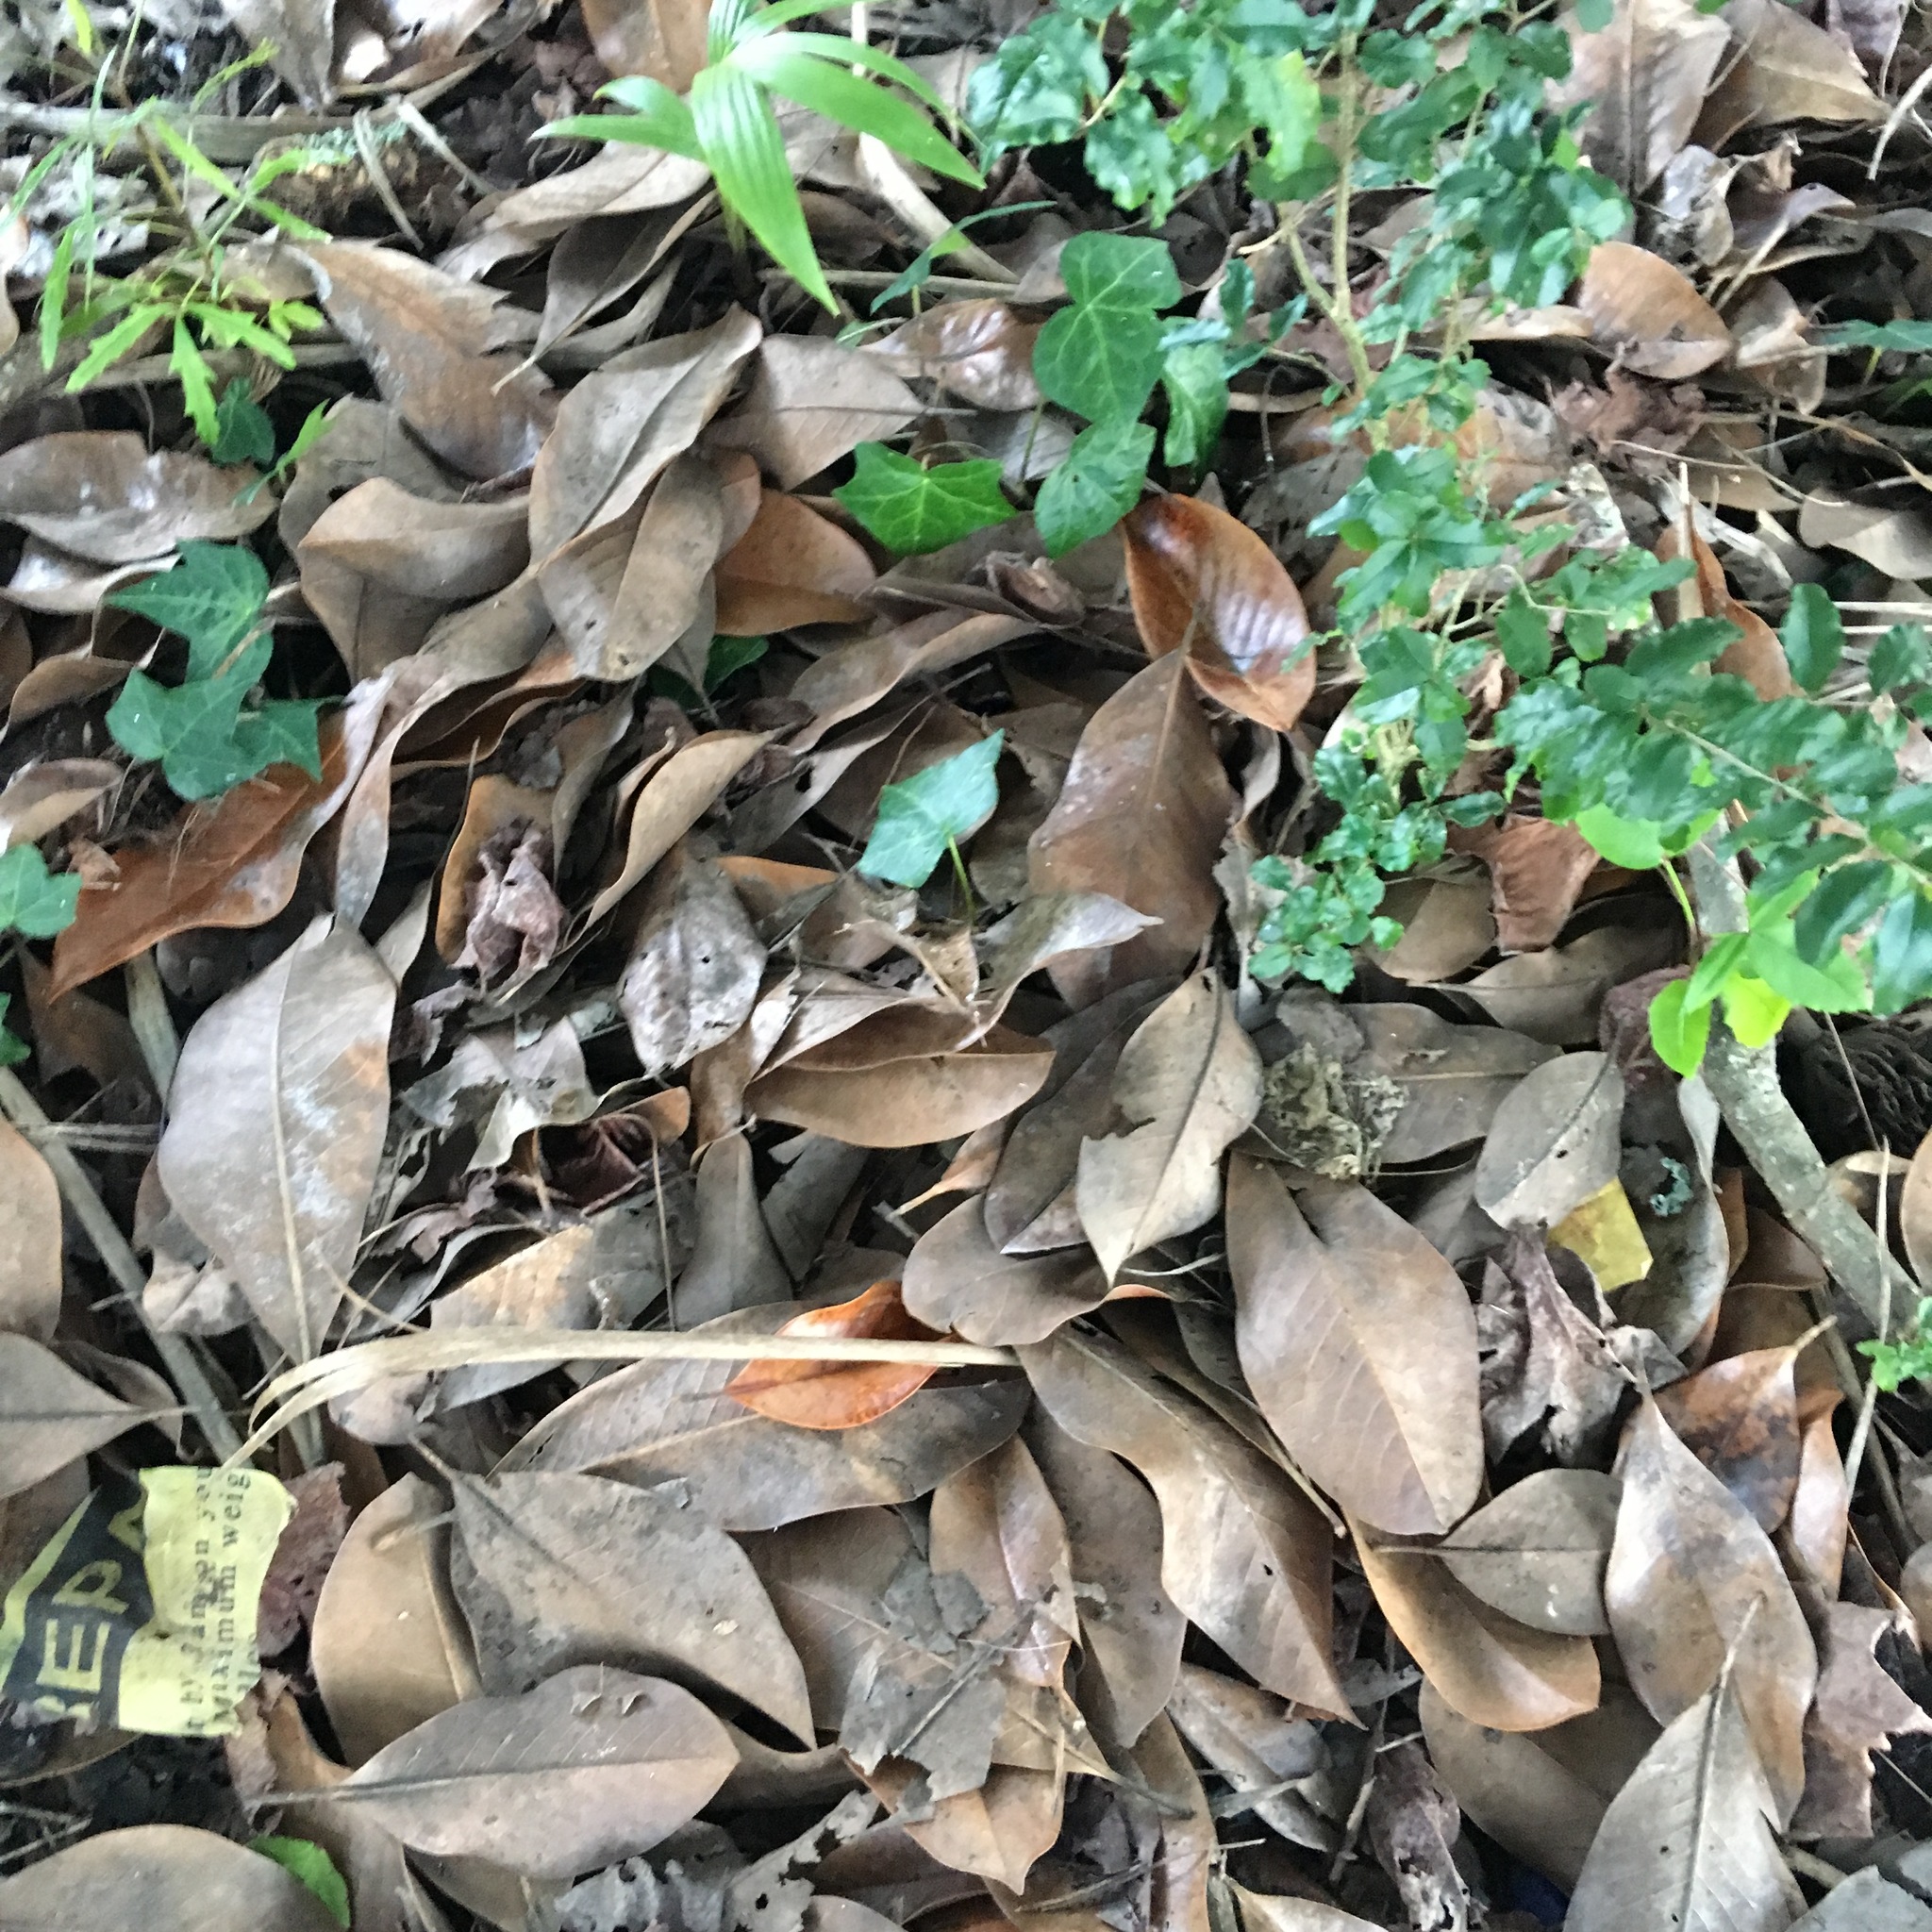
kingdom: Plantae
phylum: Tracheophyta
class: Magnoliopsida
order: Apiales
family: Araliaceae
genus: Hedera
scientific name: Hedera helix
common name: Ivy
